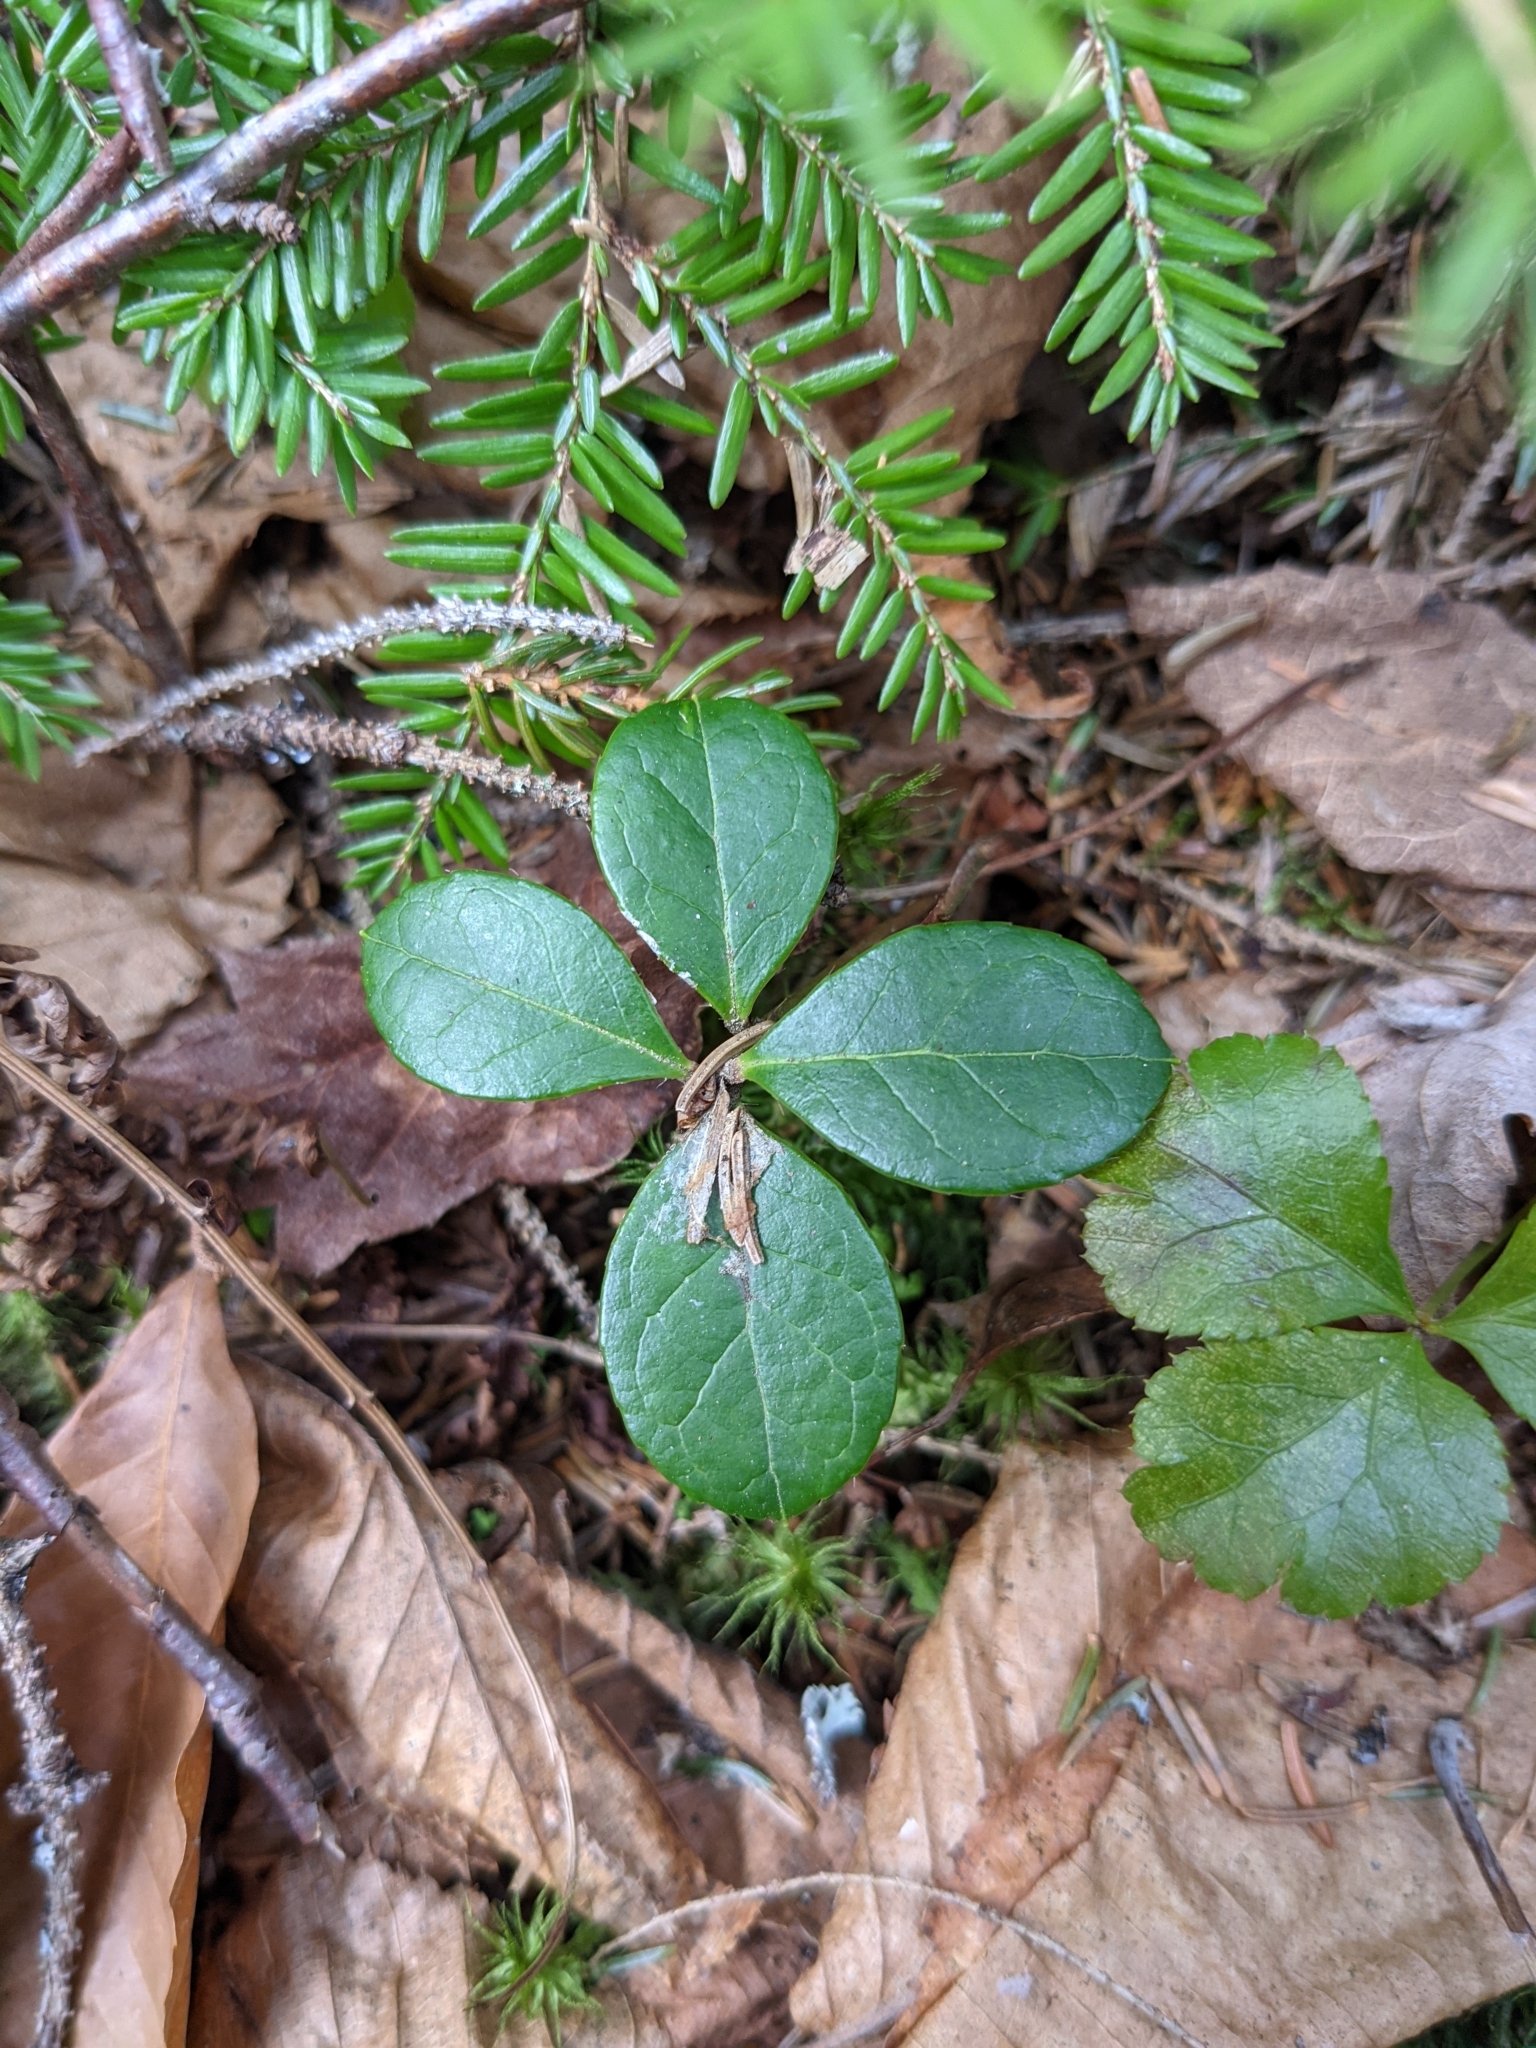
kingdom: Plantae
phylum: Tracheophyta
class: Magnoliopsida
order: Ericales
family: Ericaceae
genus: Gaultheria
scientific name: Gaultheria procumbens
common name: Checkerberry
